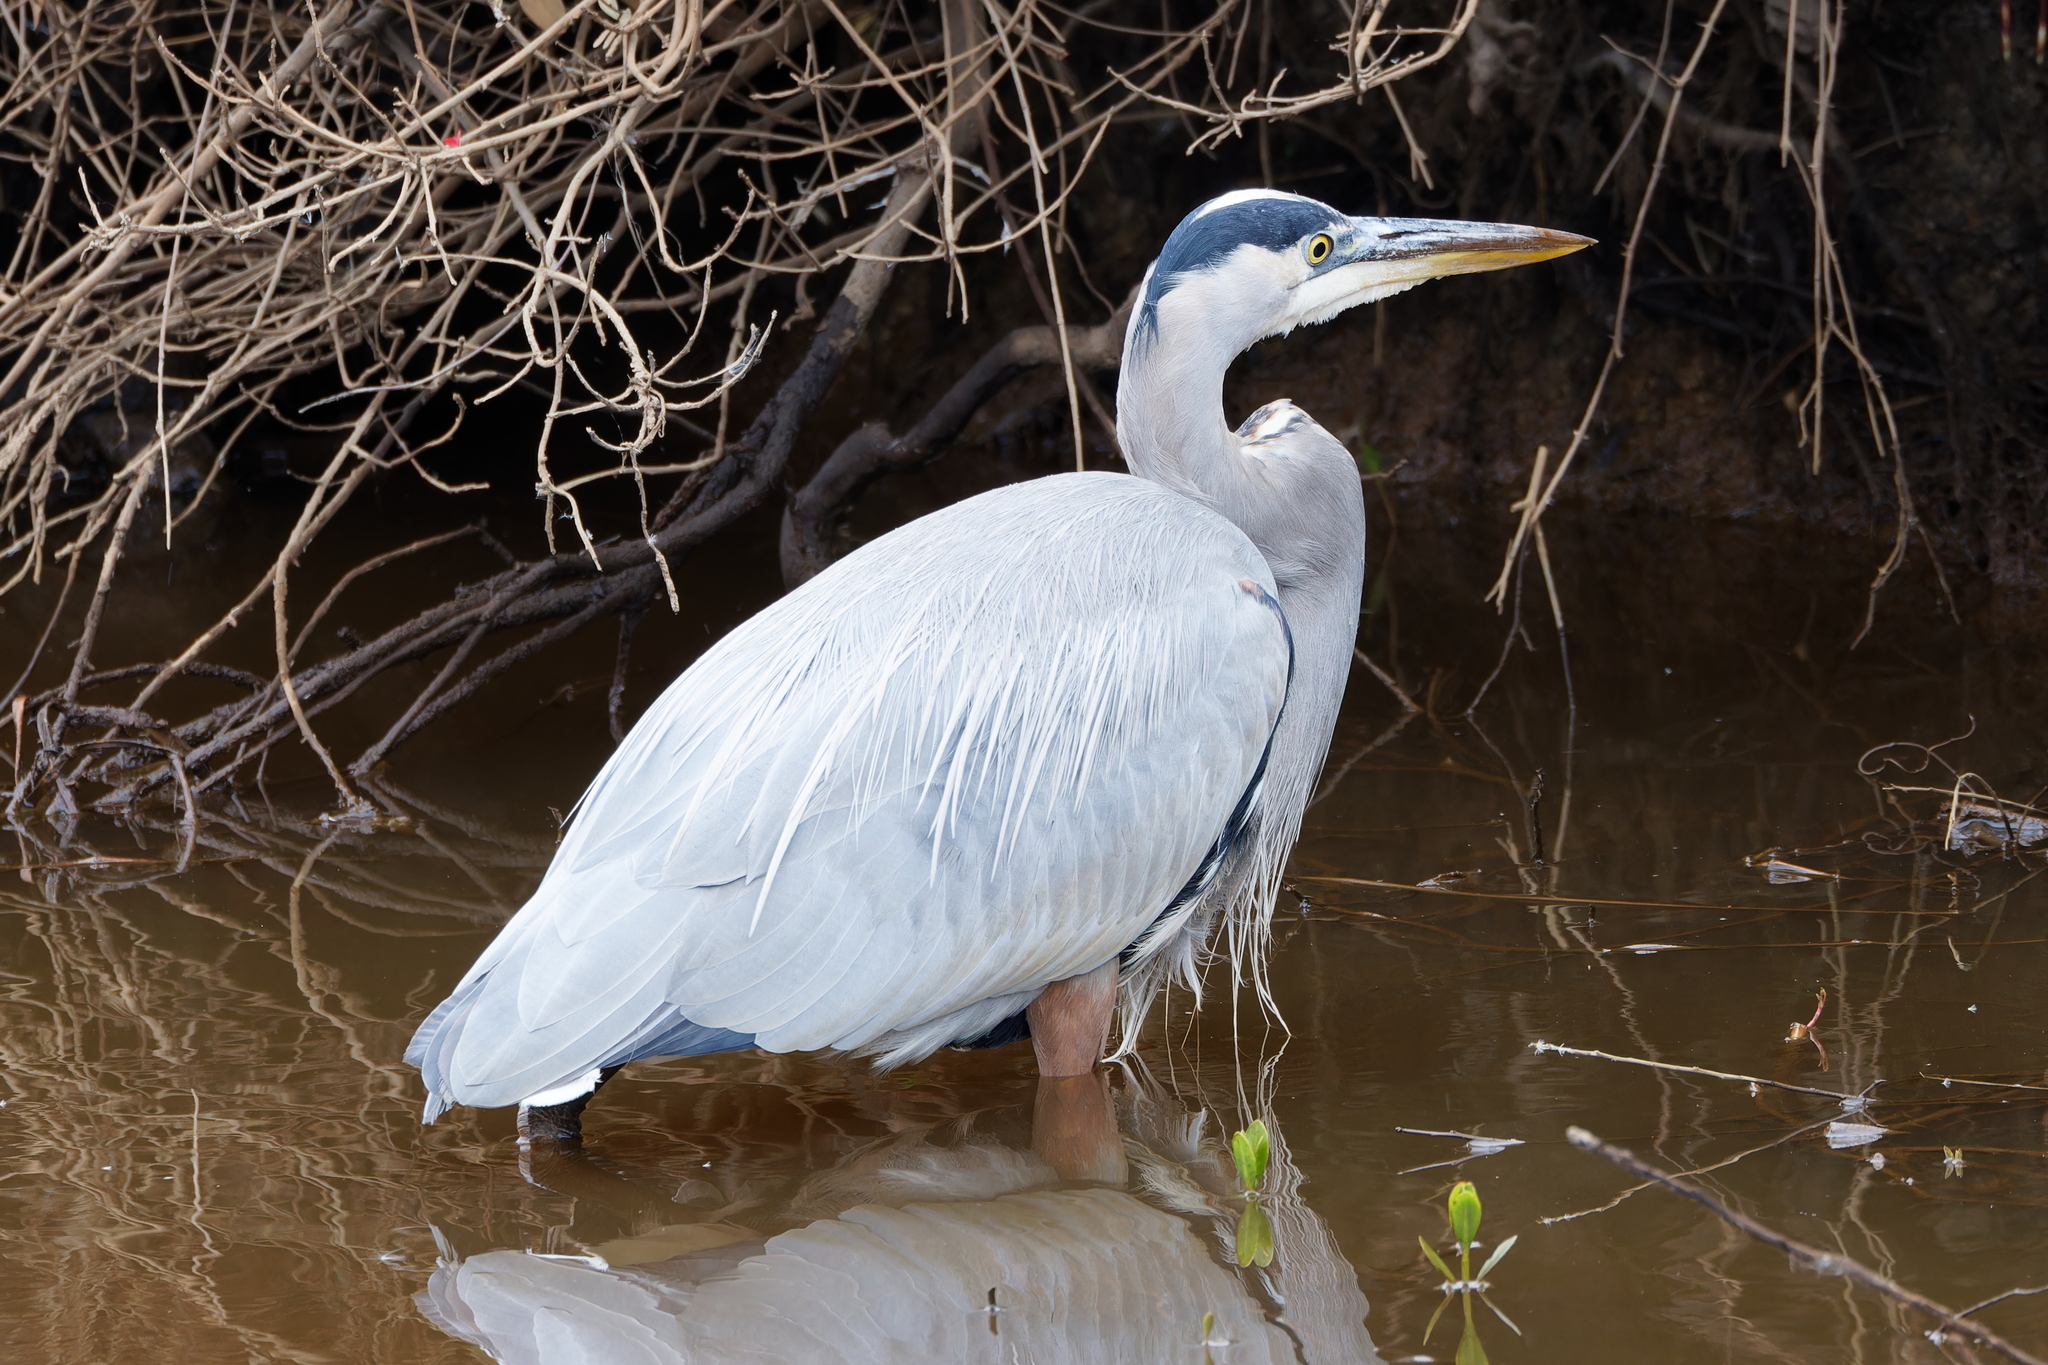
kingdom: Animalia
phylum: Chordata
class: Aves
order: Pelecaniformes
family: Ardeidae
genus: Ardea
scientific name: Ardea herodias
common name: Great blue heron
